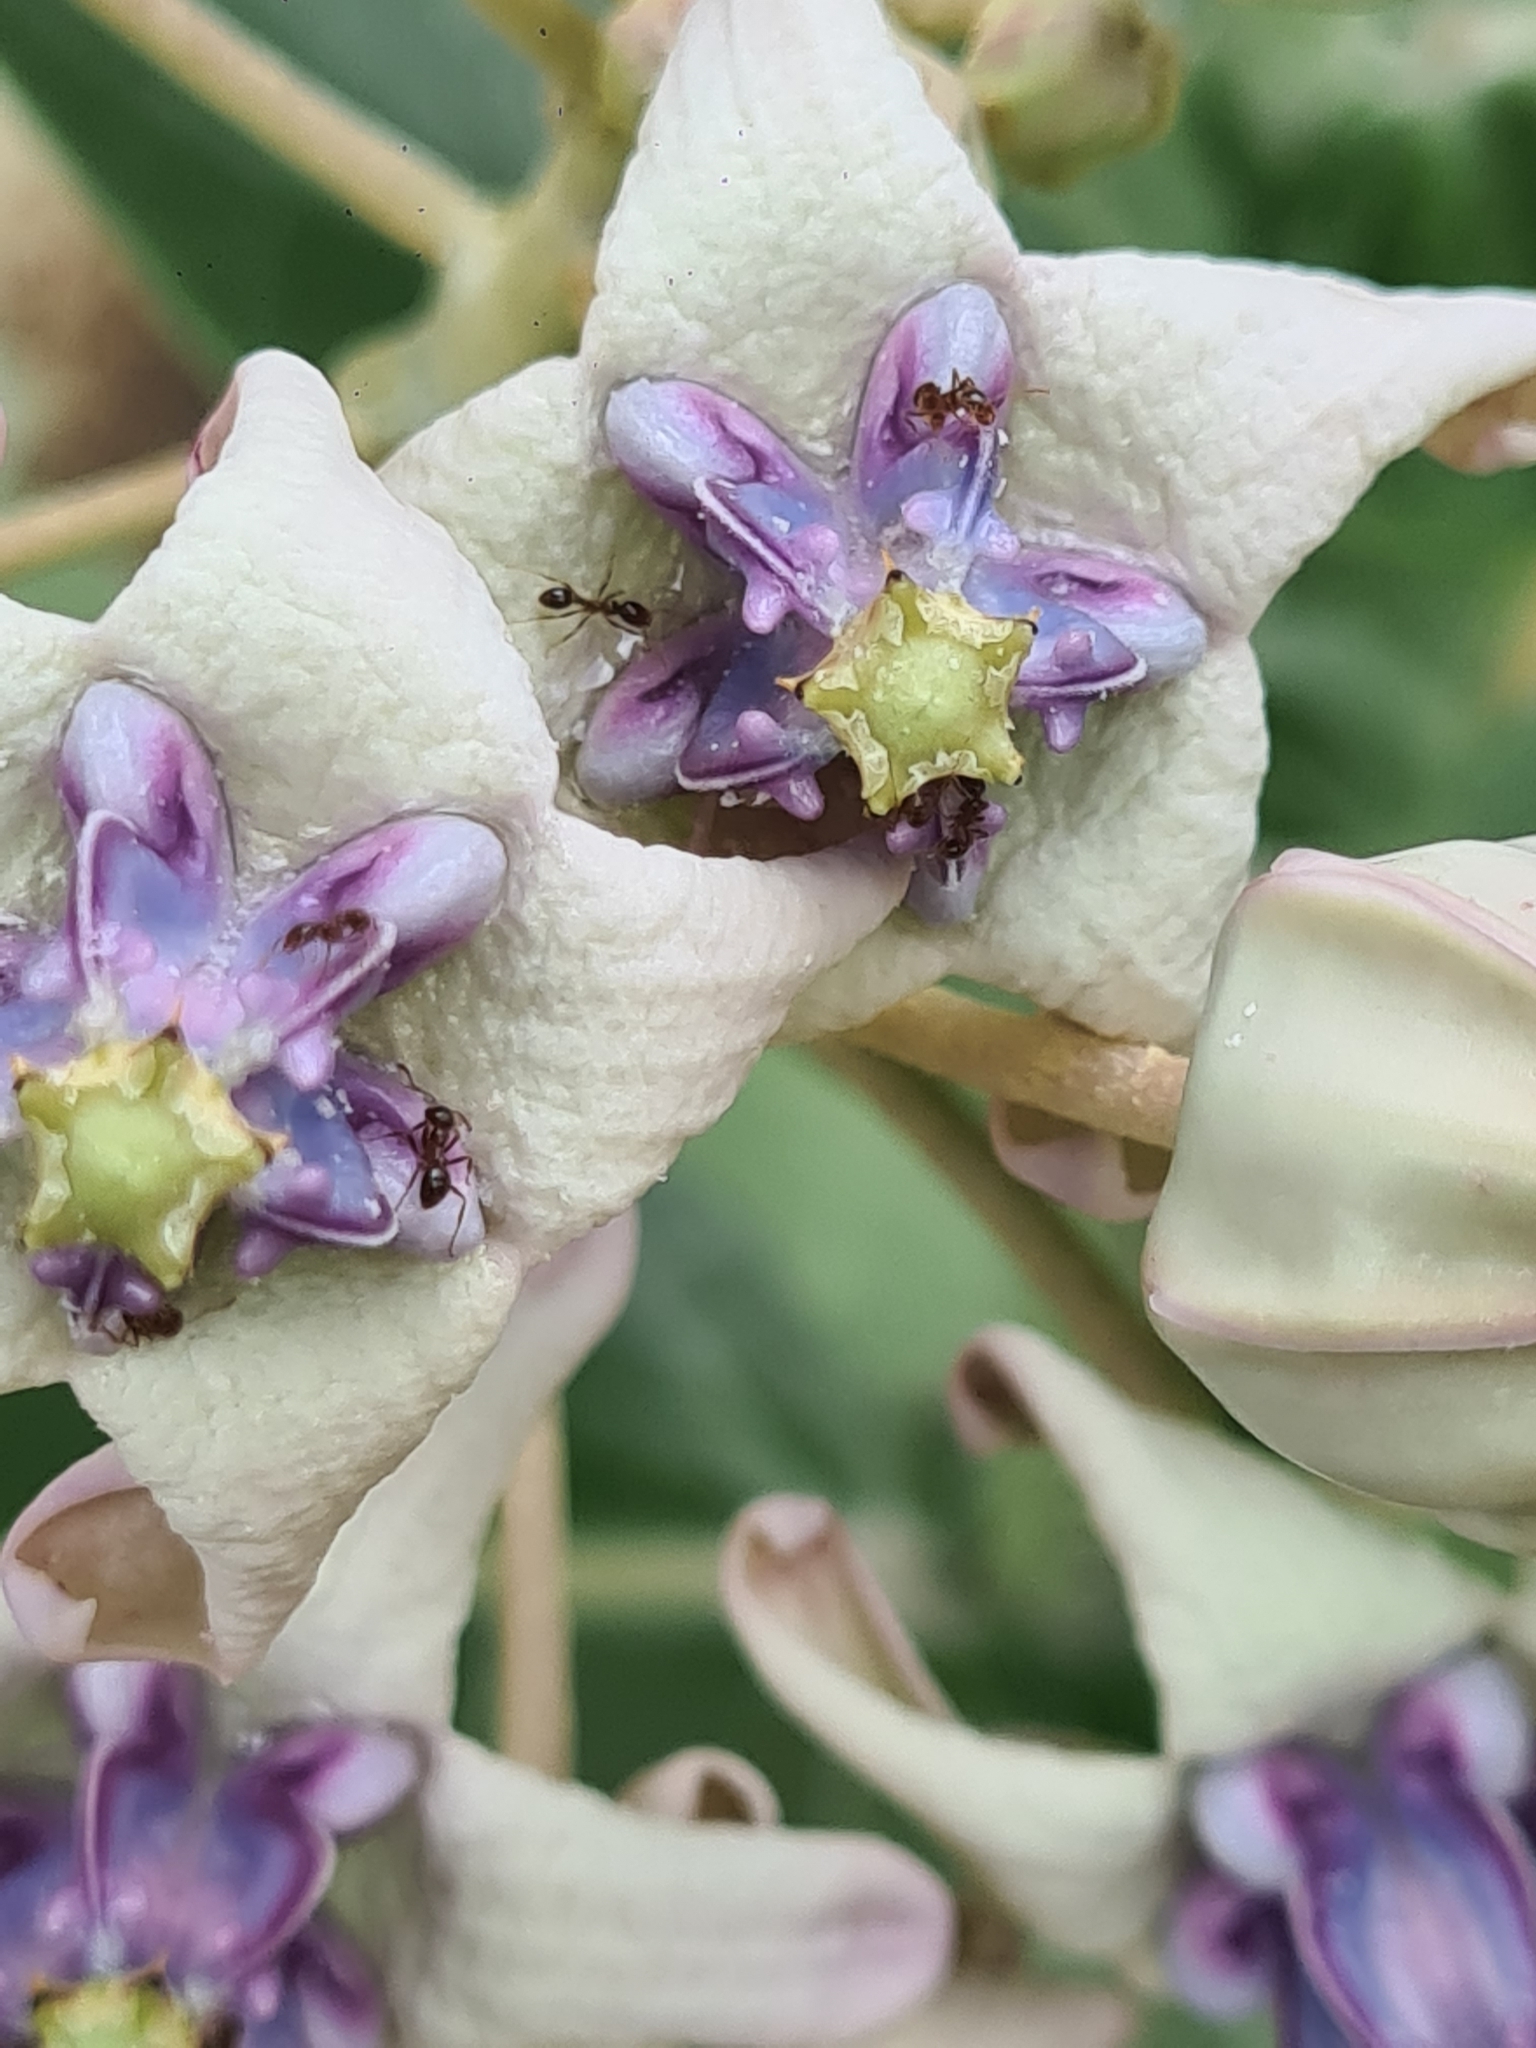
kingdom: Plantae
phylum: Tracheophyta
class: Magnoliopsida
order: Gentianales
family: Apocynaceae
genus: Calotropis
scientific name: Calotropis gigantea
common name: Crown flower
